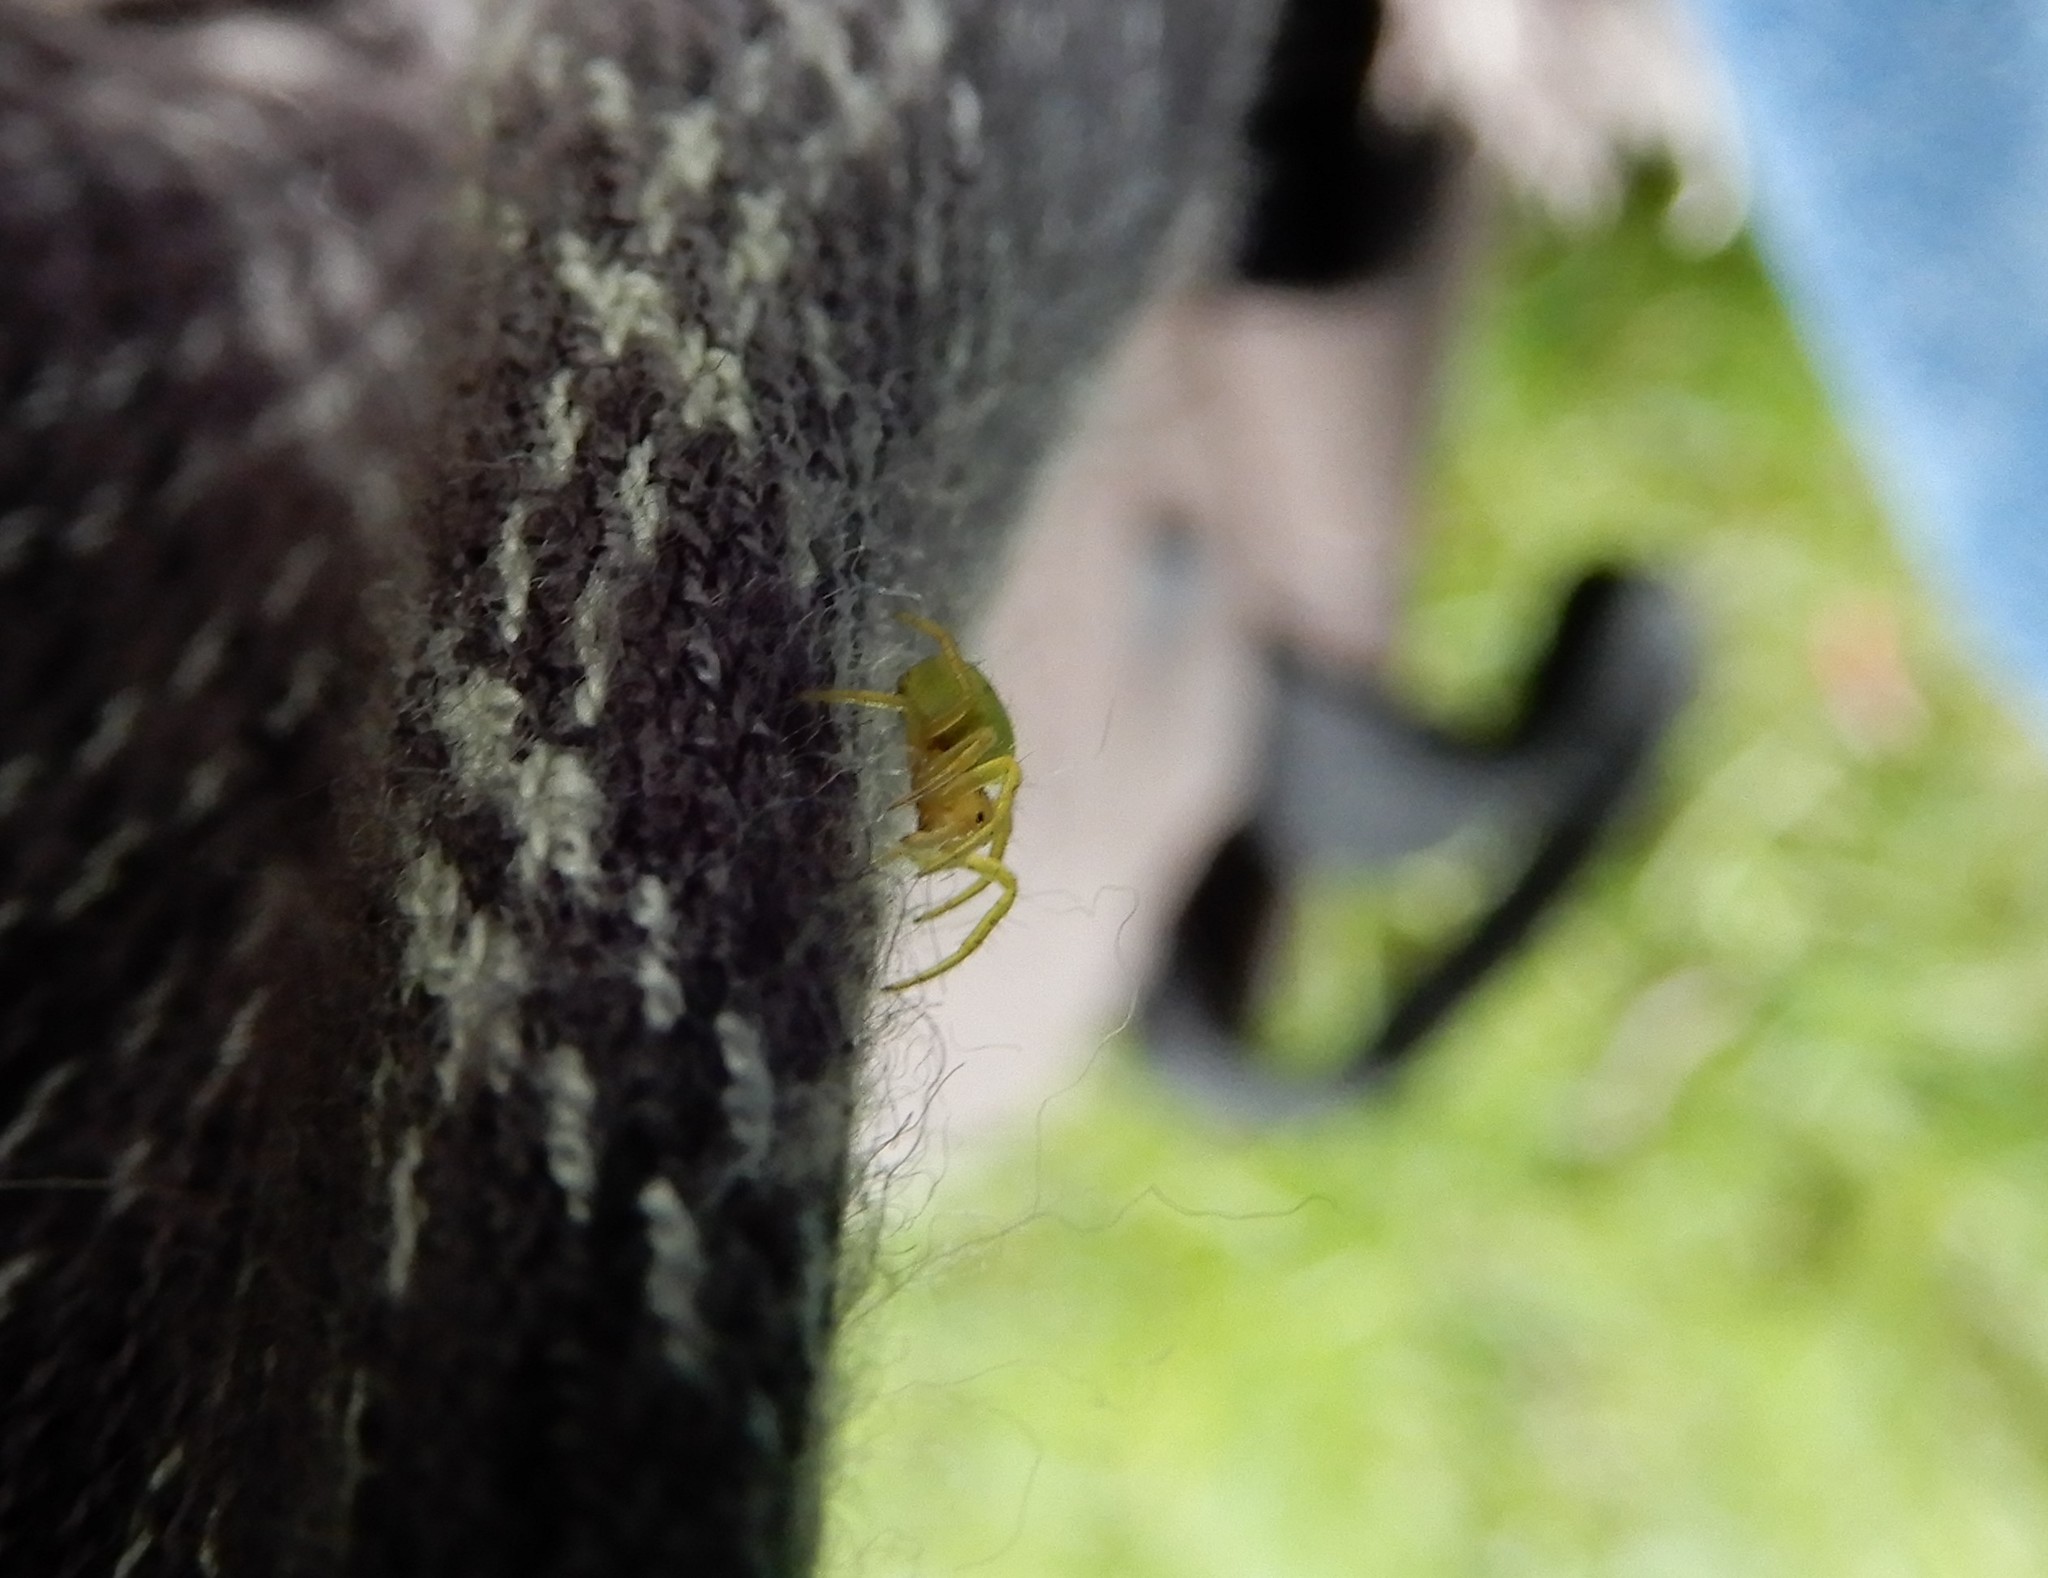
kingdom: Animalia
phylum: Arthropoda
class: Arachnida
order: Araneae
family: Araneidae
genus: Araniella
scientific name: Araniella
